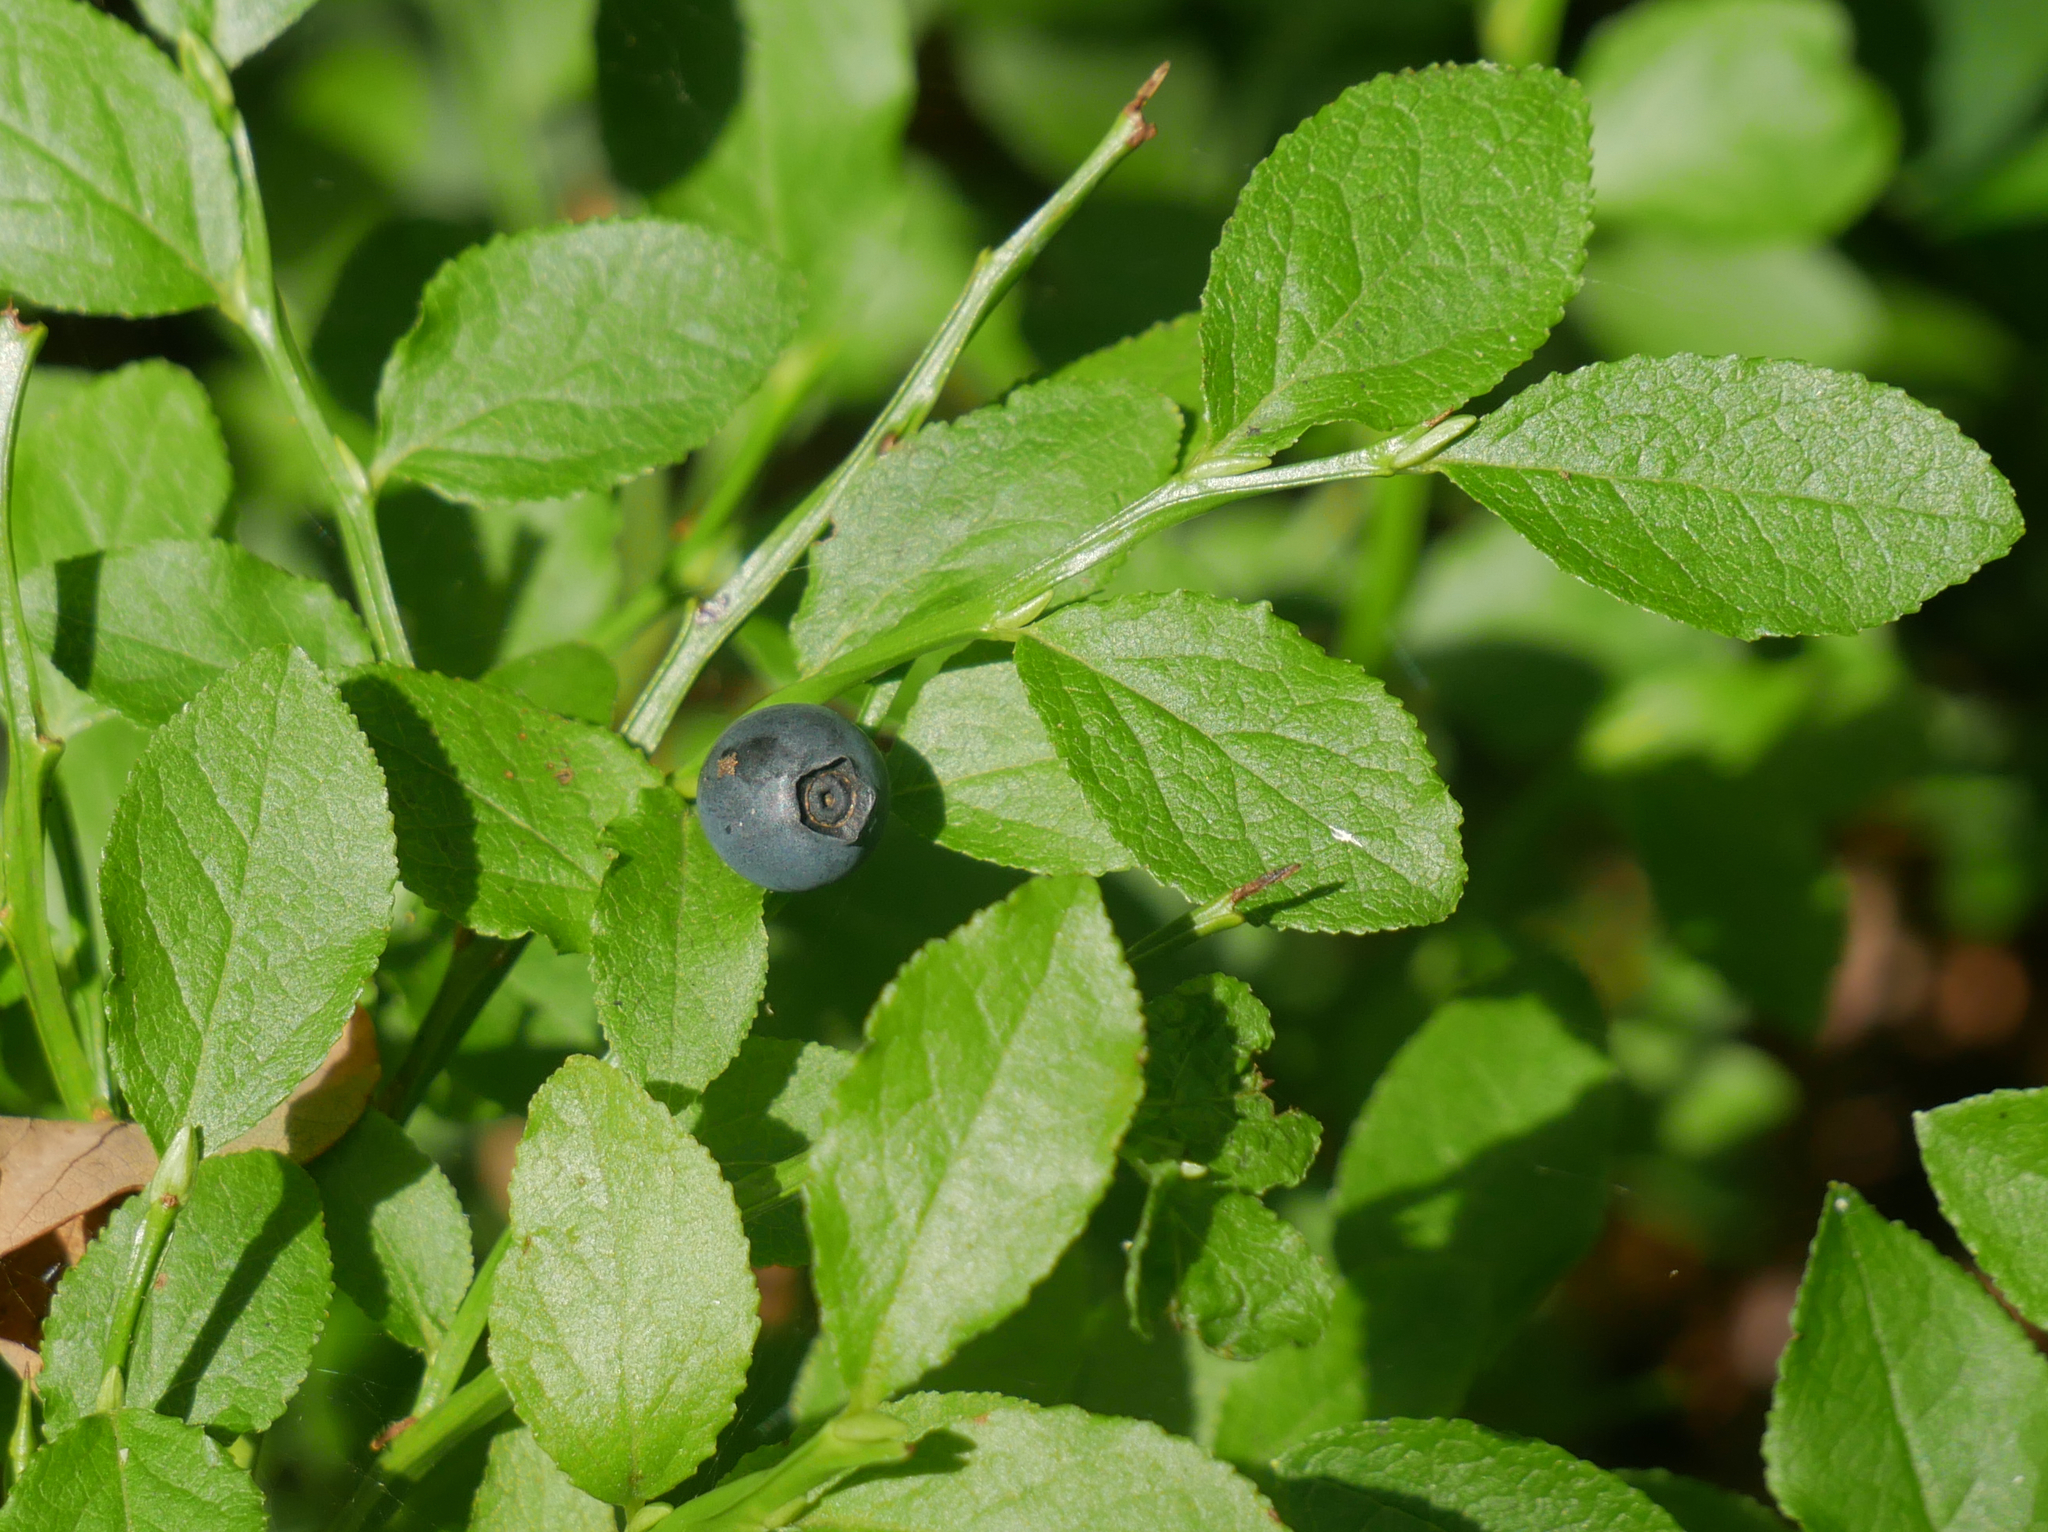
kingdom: Plantae
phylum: Tracheophyta
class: Magnoliopsida
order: Ericales
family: Ericaceae
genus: Vaccinium
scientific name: Vaccinium myrtillus
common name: Bilberry
